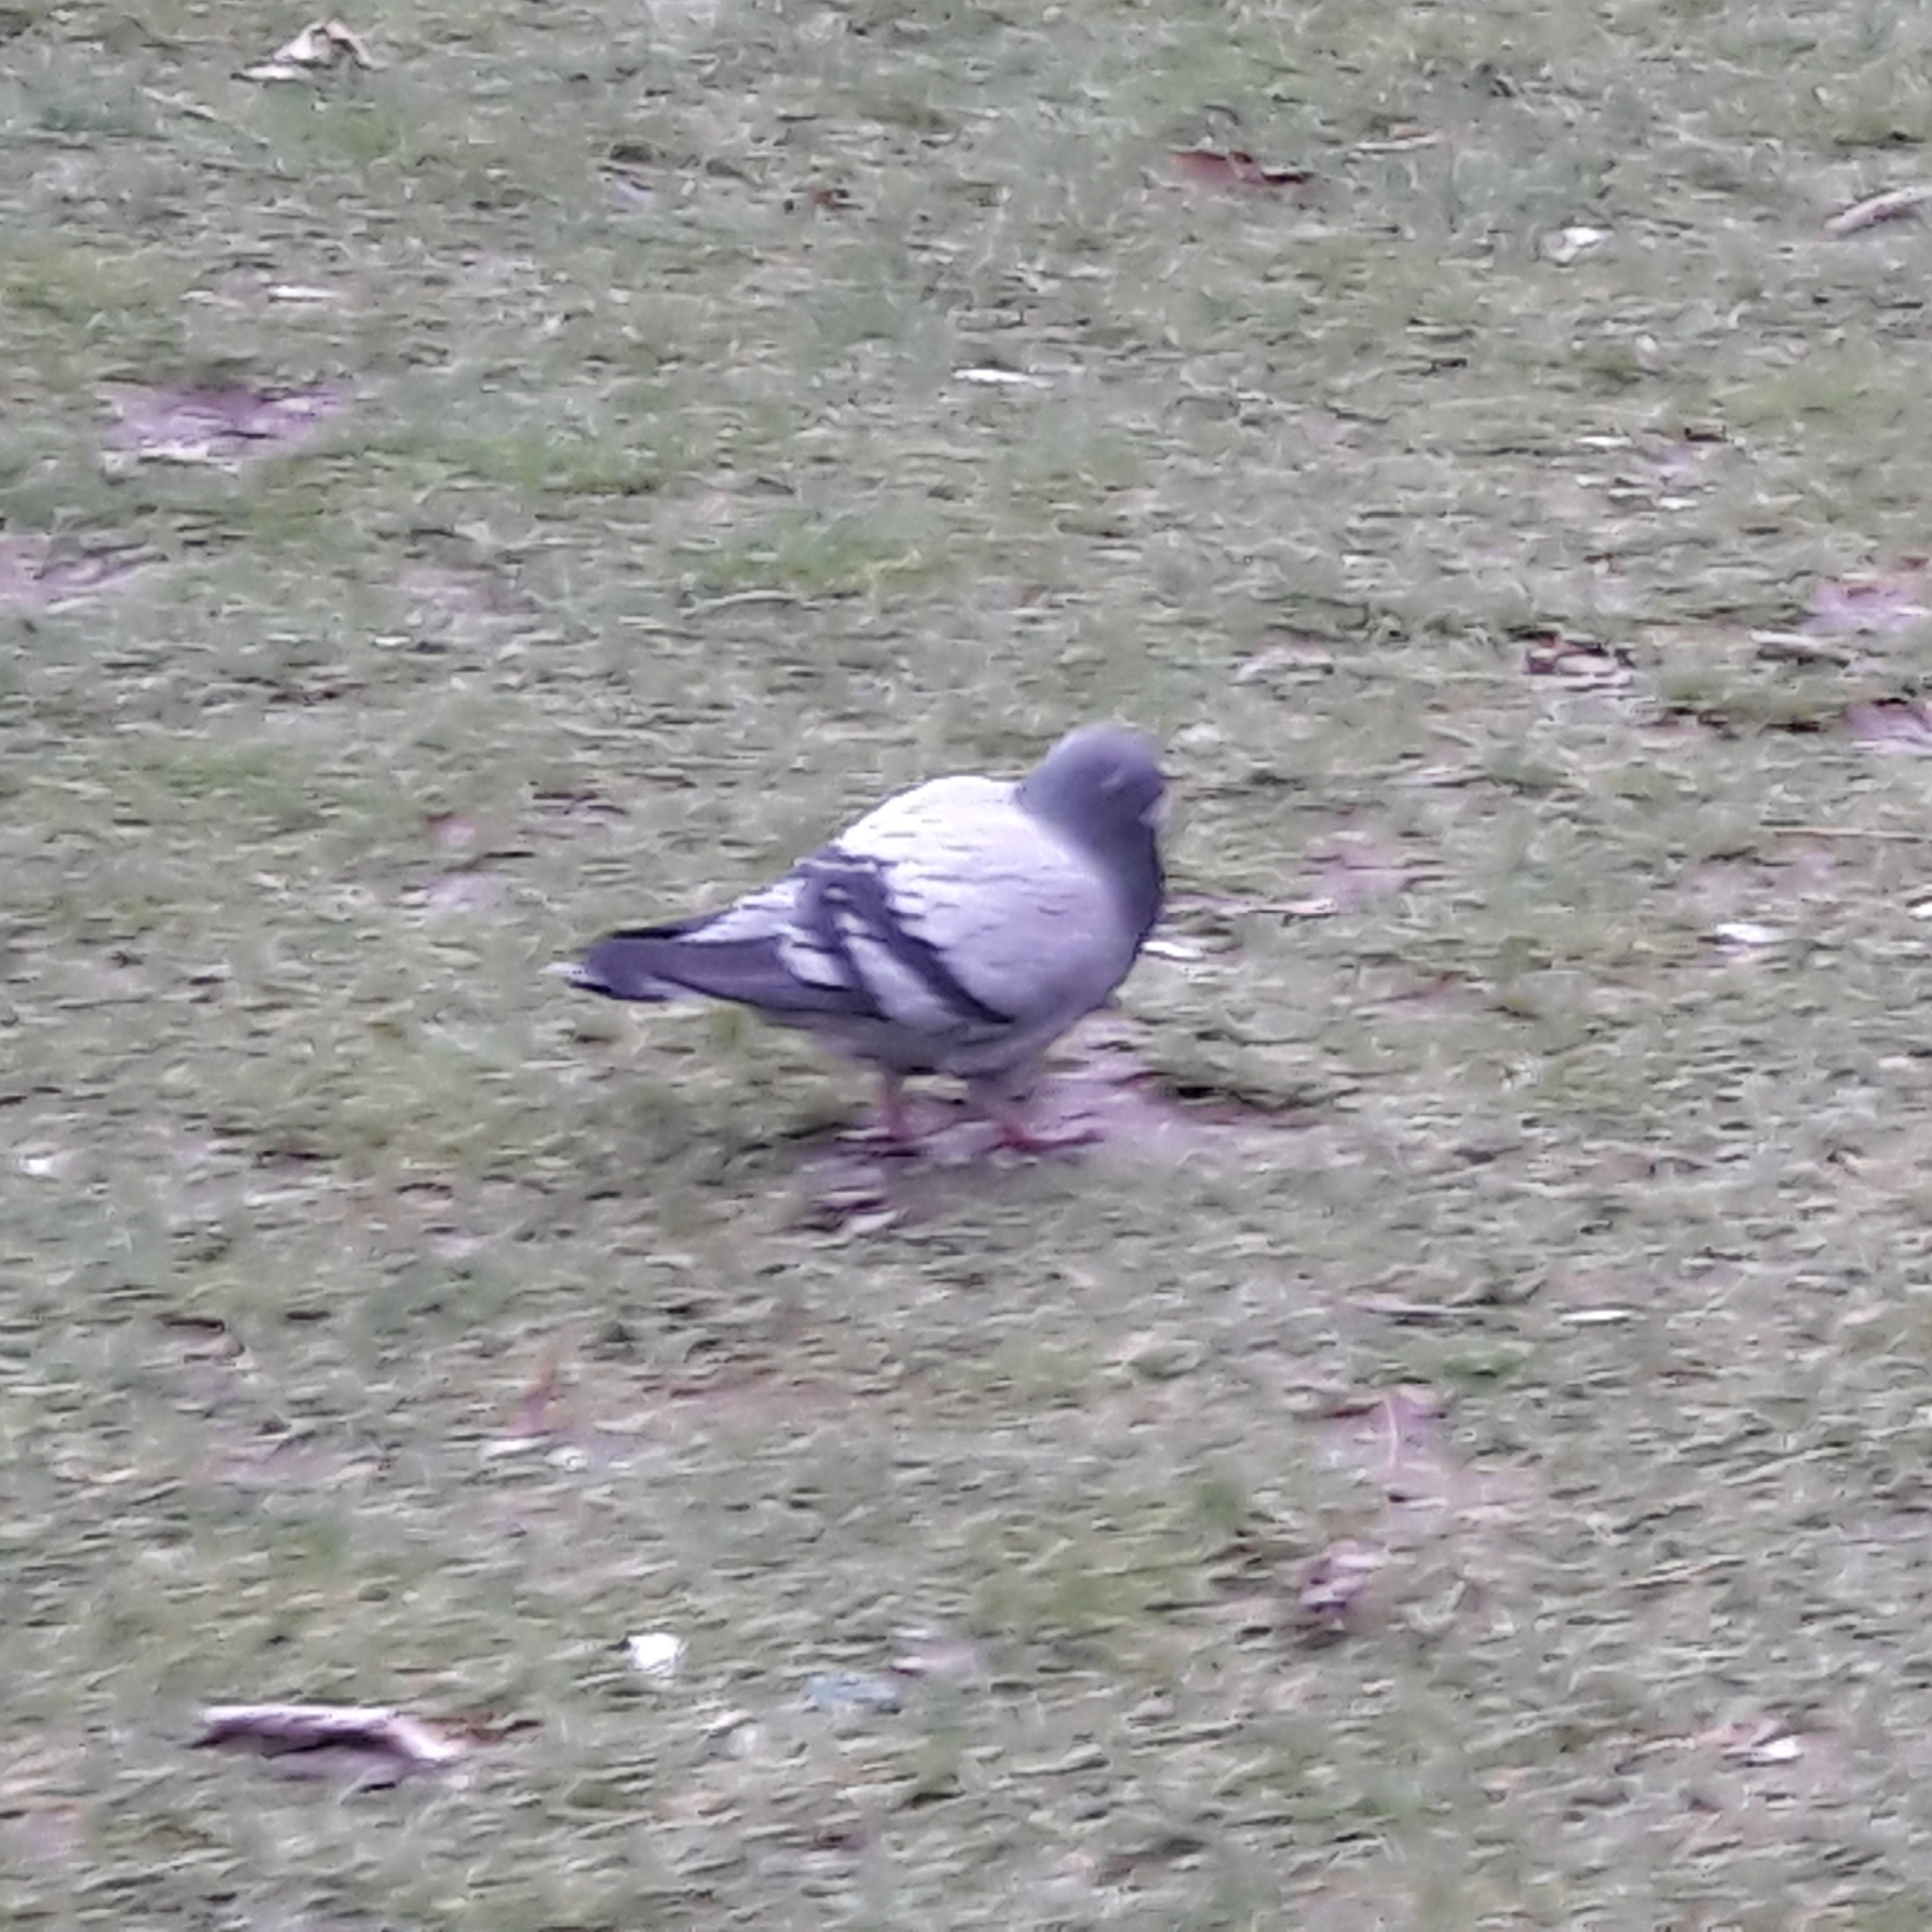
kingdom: Animalia
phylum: Chordata
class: Aves
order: Columbiformes
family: Columbidae
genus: Columba
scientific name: Columba livia
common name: Rock pigeon
